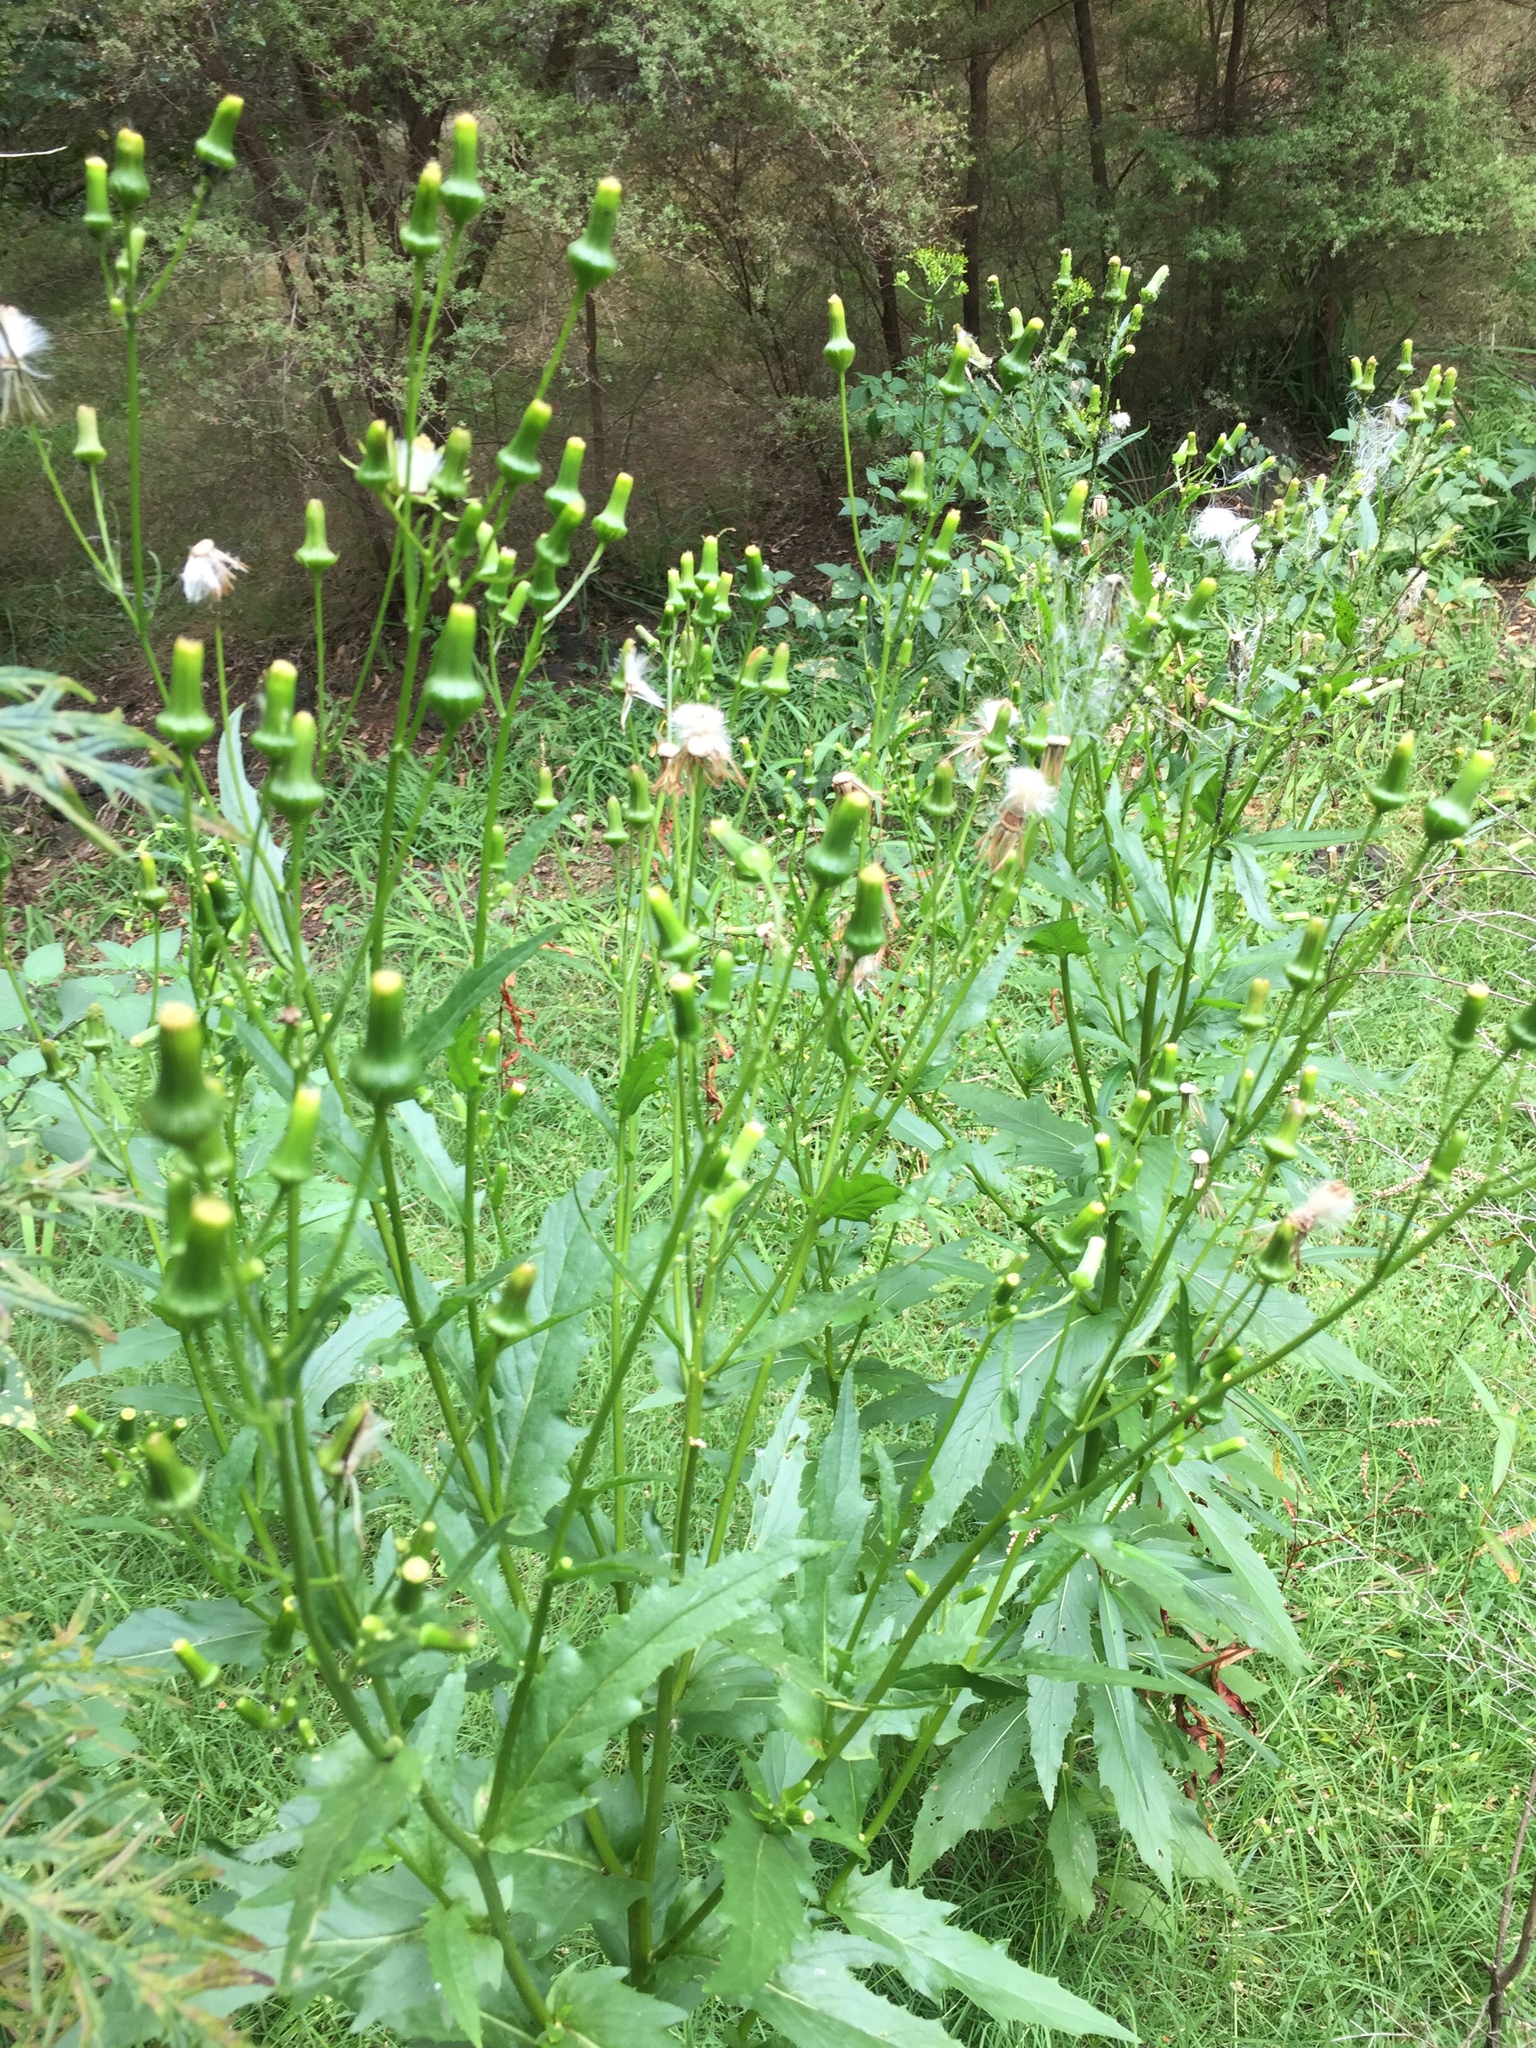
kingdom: Plantae
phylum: Tracheophyta
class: Magnoliopsida
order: Asterales
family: Asteraceae
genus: Erechtites
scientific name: Erechtites hieraciifolius
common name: American burnweed
